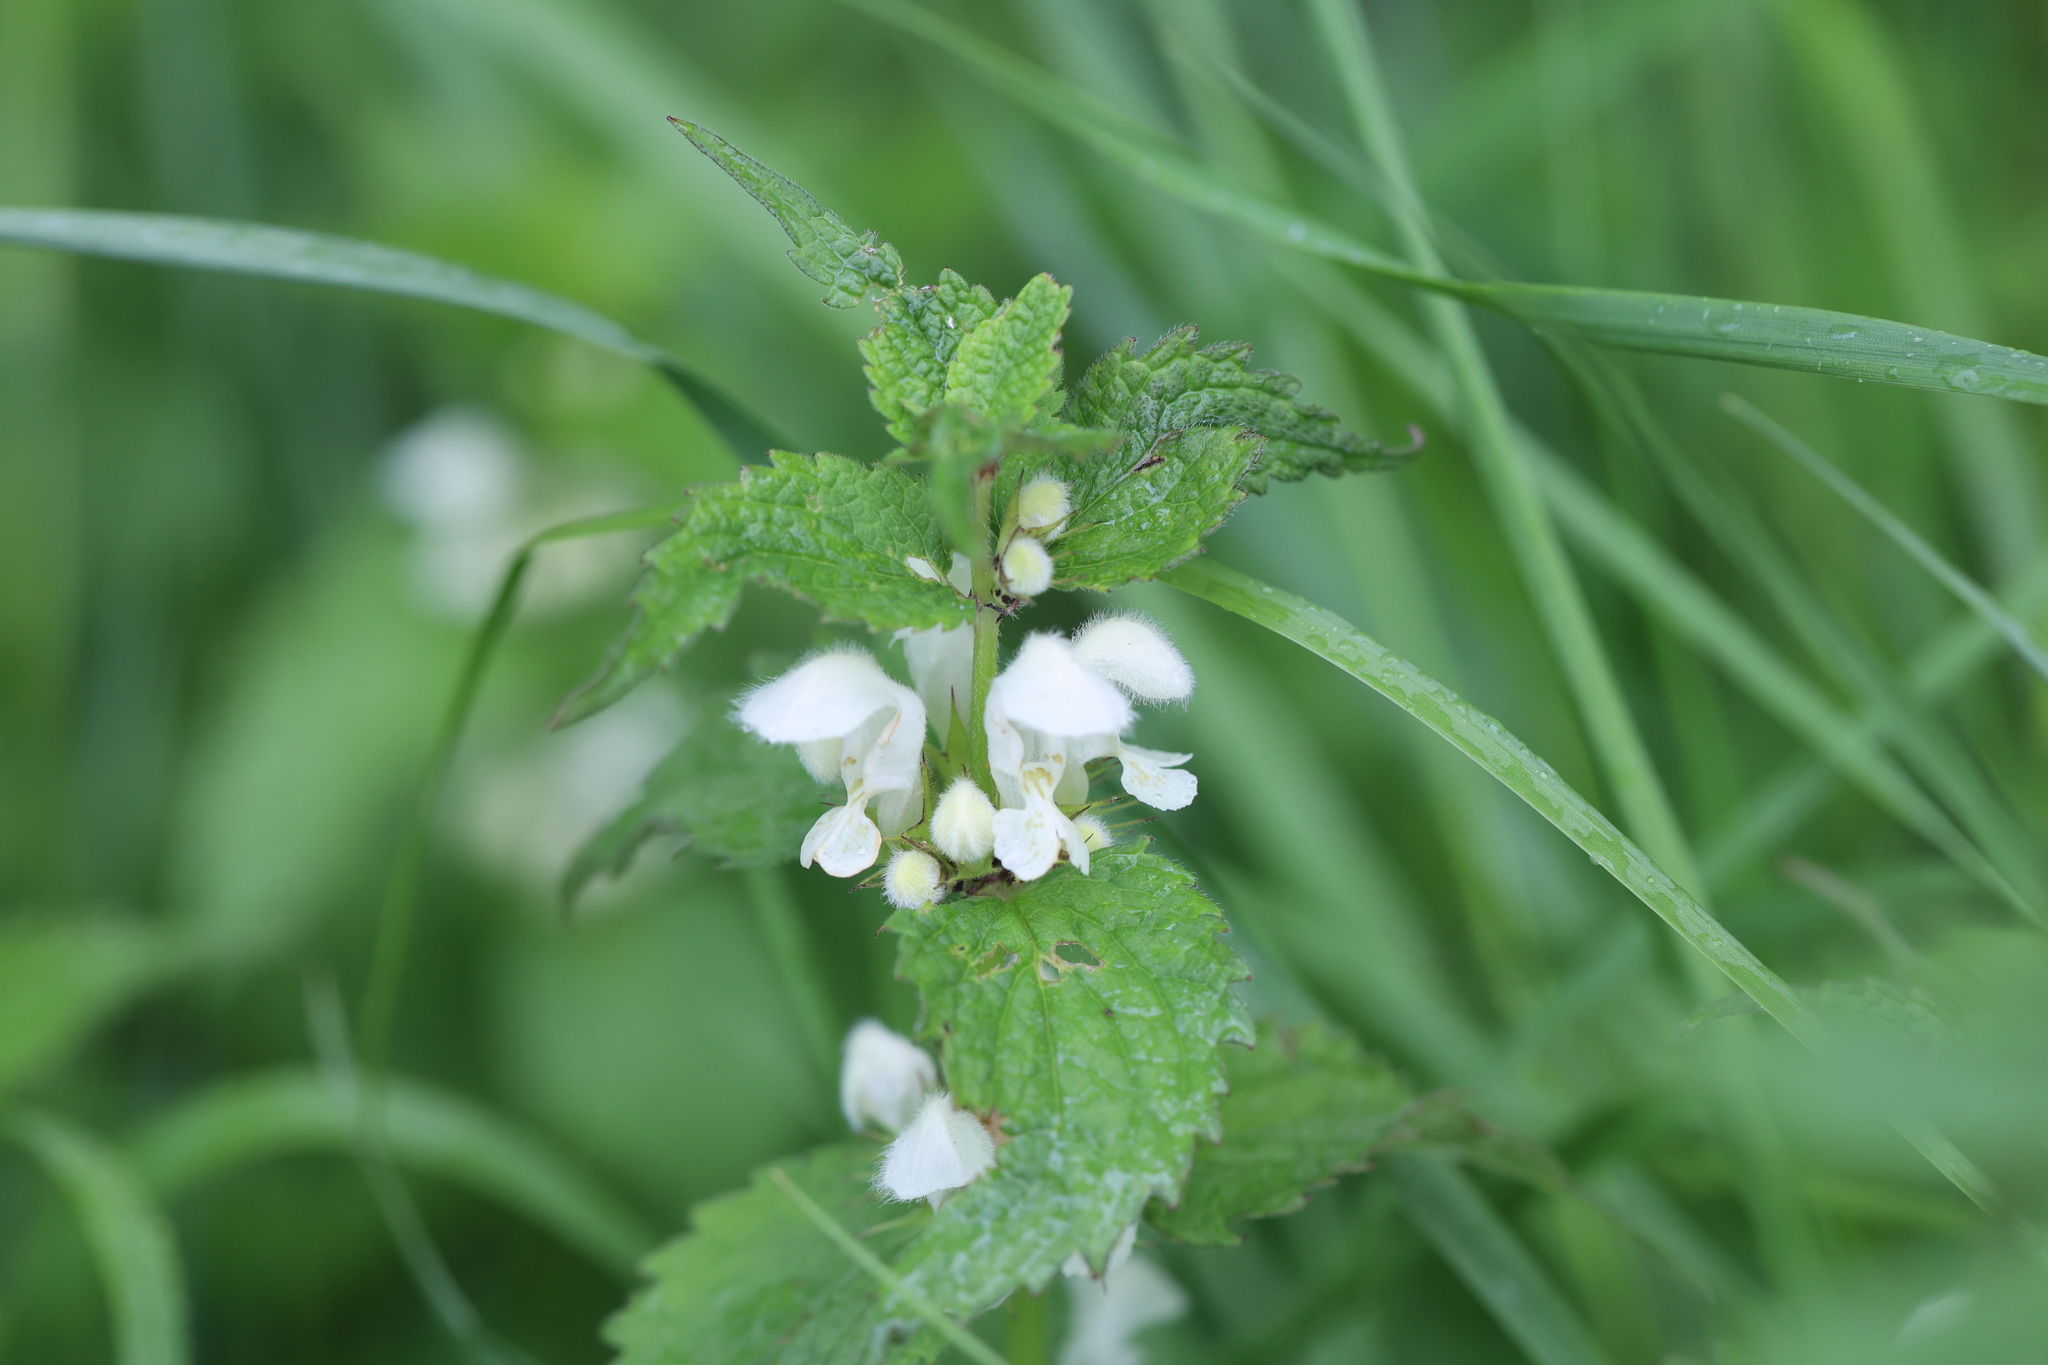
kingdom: Plantae
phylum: Tracheophyta
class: Magnoliopsida
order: Lamiales
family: Lamiaceae
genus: Lamium
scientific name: Lamium album
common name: White dead-nettle
